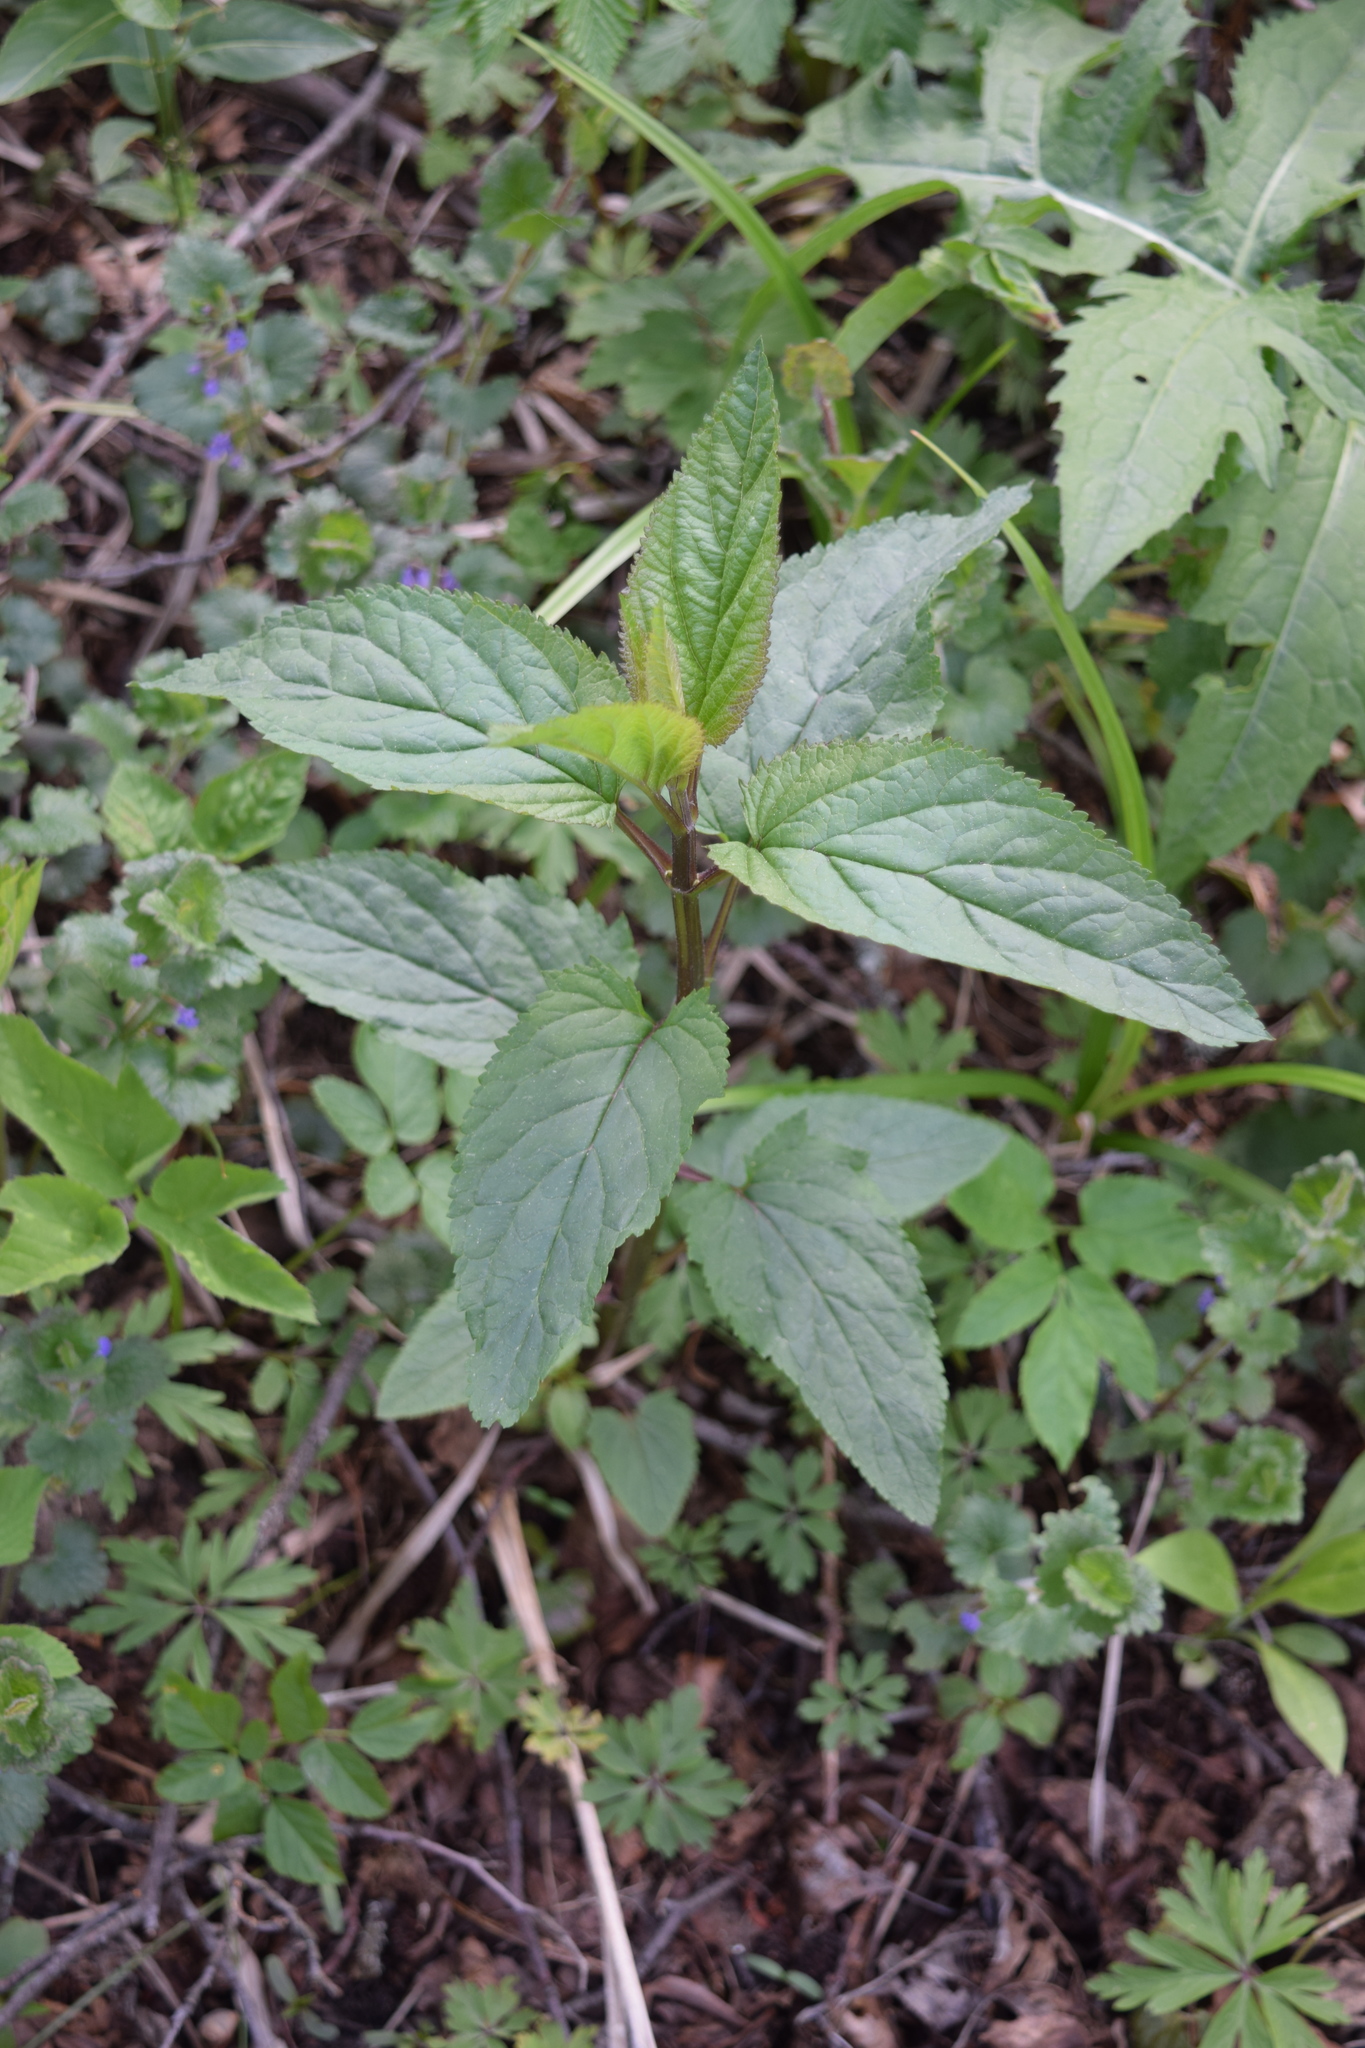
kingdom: Plantae
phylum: Tracheophyta
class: Magnoliopsida
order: Lamiales
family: Scrophulariaceae
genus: Scrophularia
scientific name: Scrophularia nodosa
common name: Common figwort
